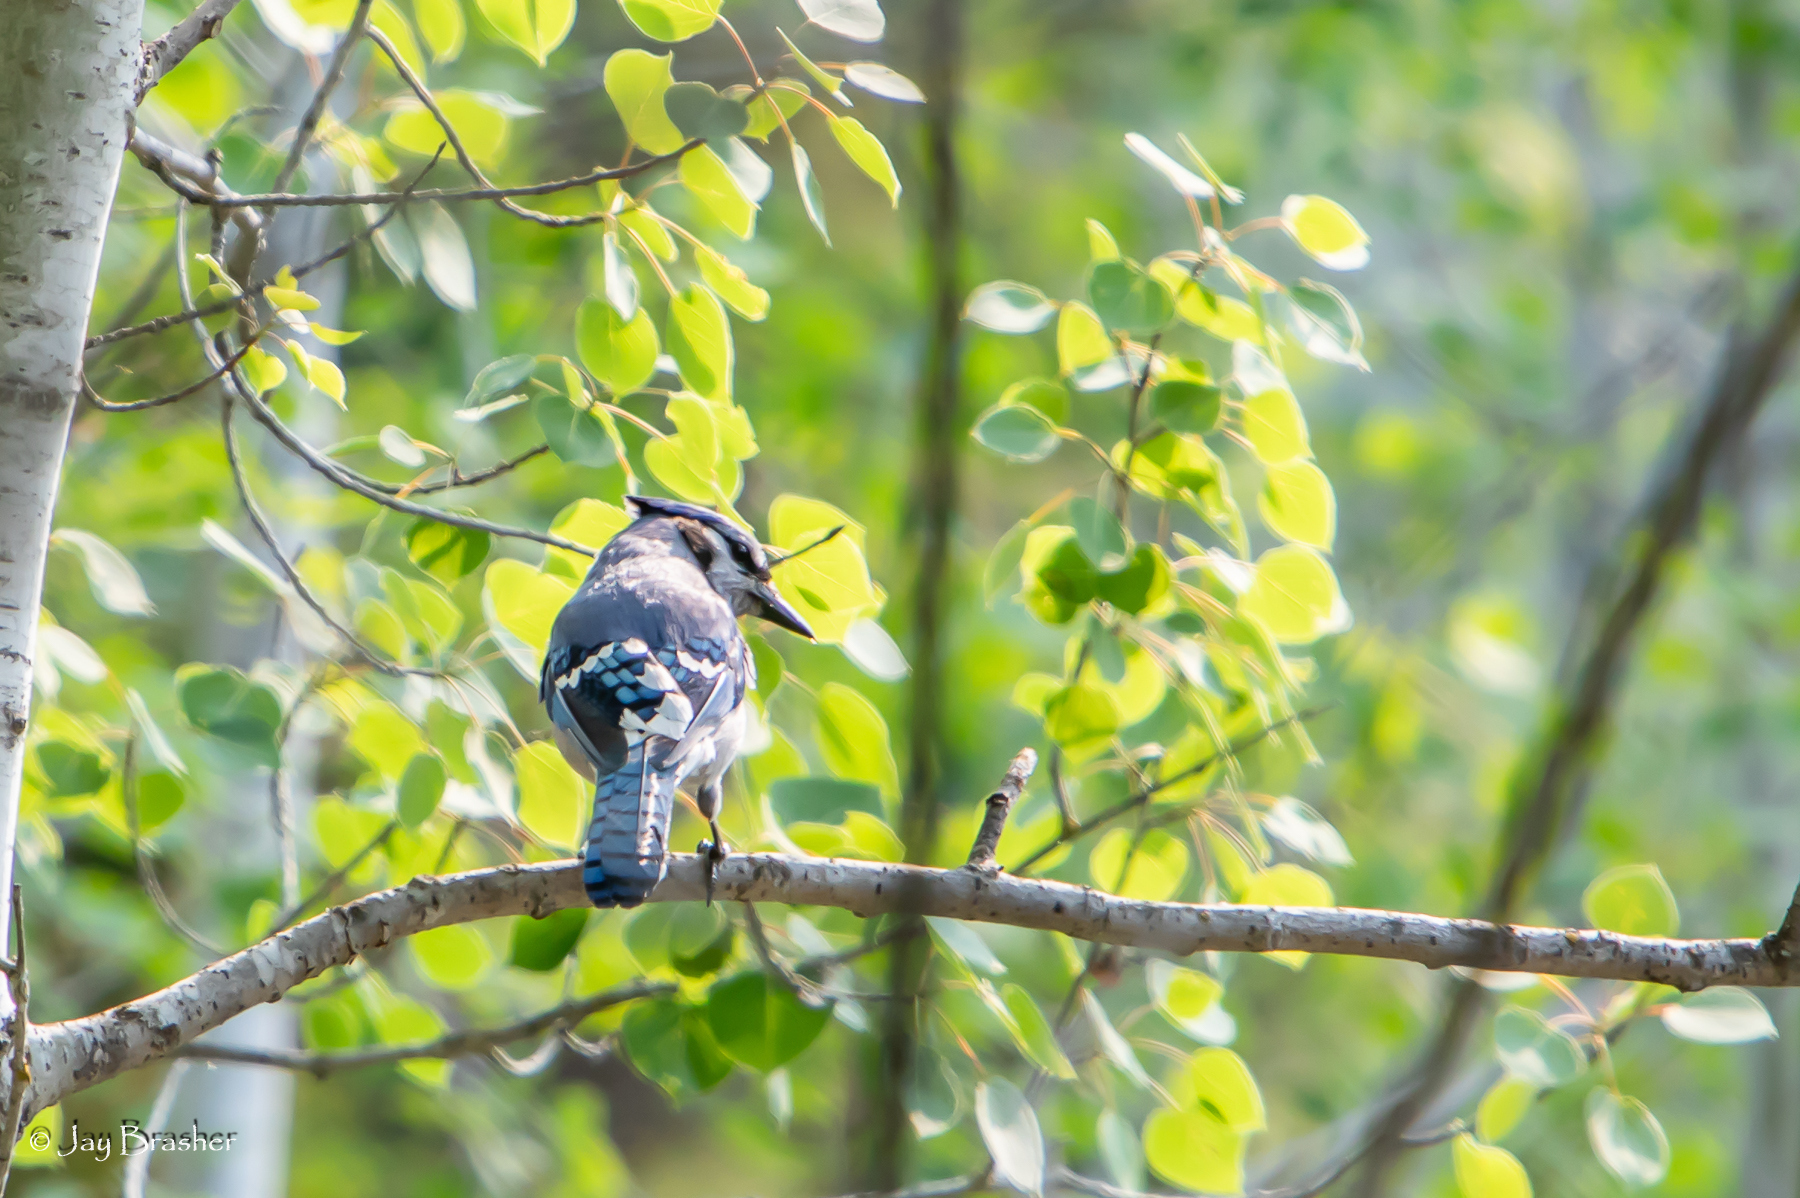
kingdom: Animalia
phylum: Chordata
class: Aves
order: Passeriformes
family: Corvidae
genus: Cyanocitta
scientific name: Cyanocitta cristata
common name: Blue jay
